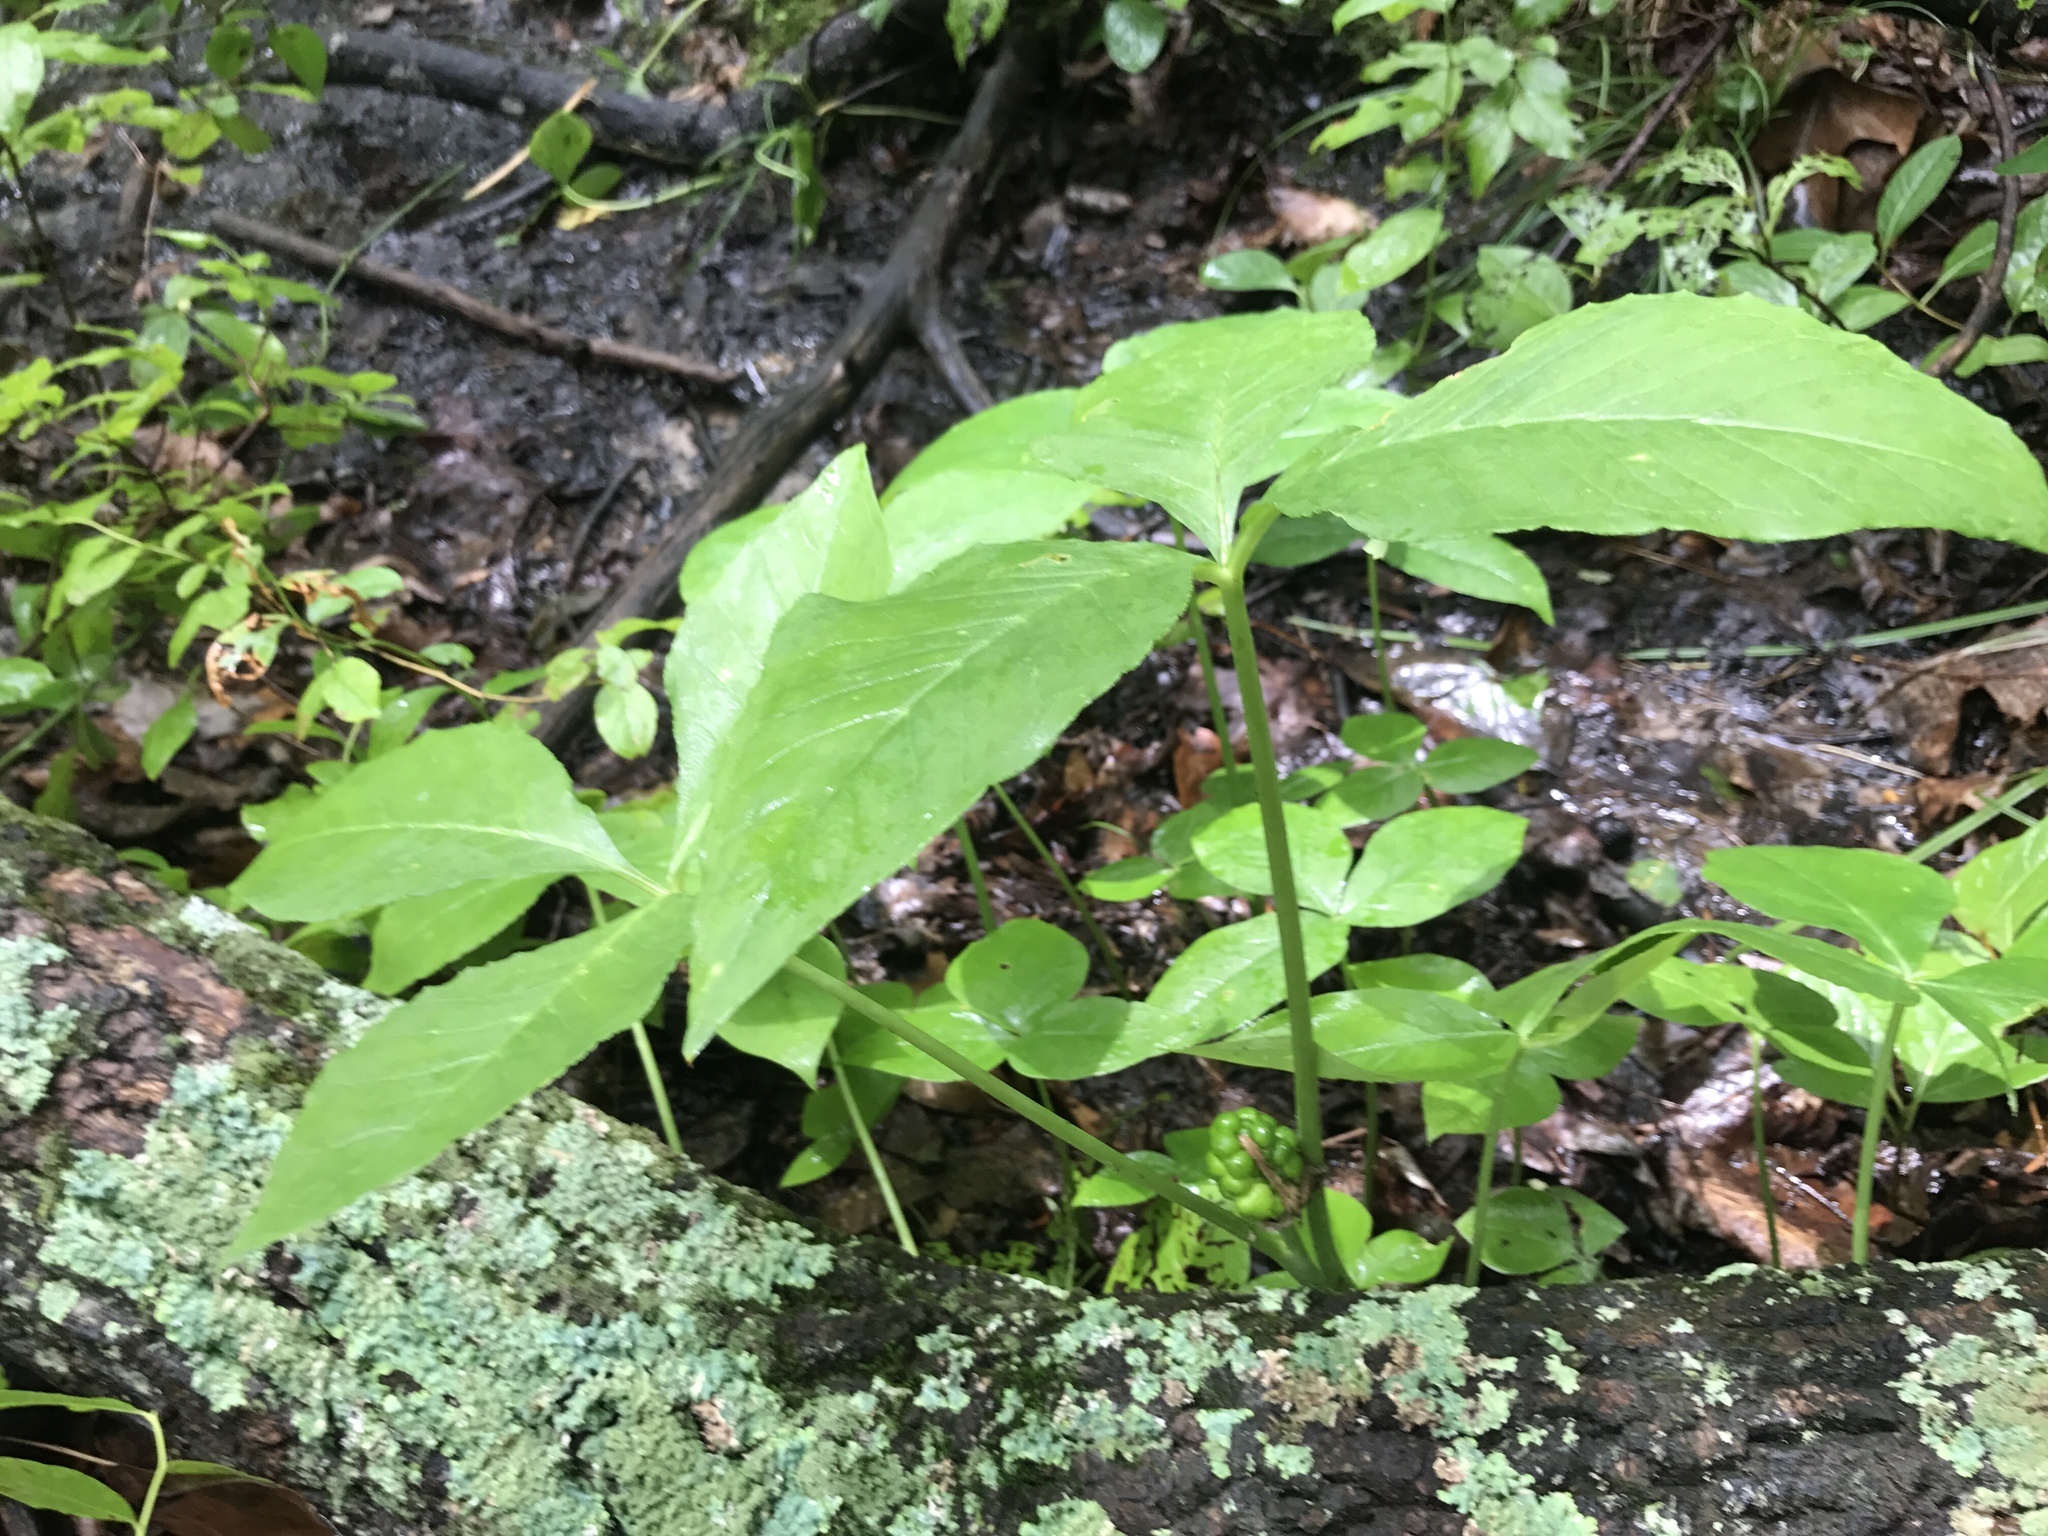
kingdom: Plantae
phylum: Tracheophyta
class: Liliopsida
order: Alismatales
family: Araceae
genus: Arisaema
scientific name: Arisaema triphyllum
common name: Jack-in-the-pulpit
